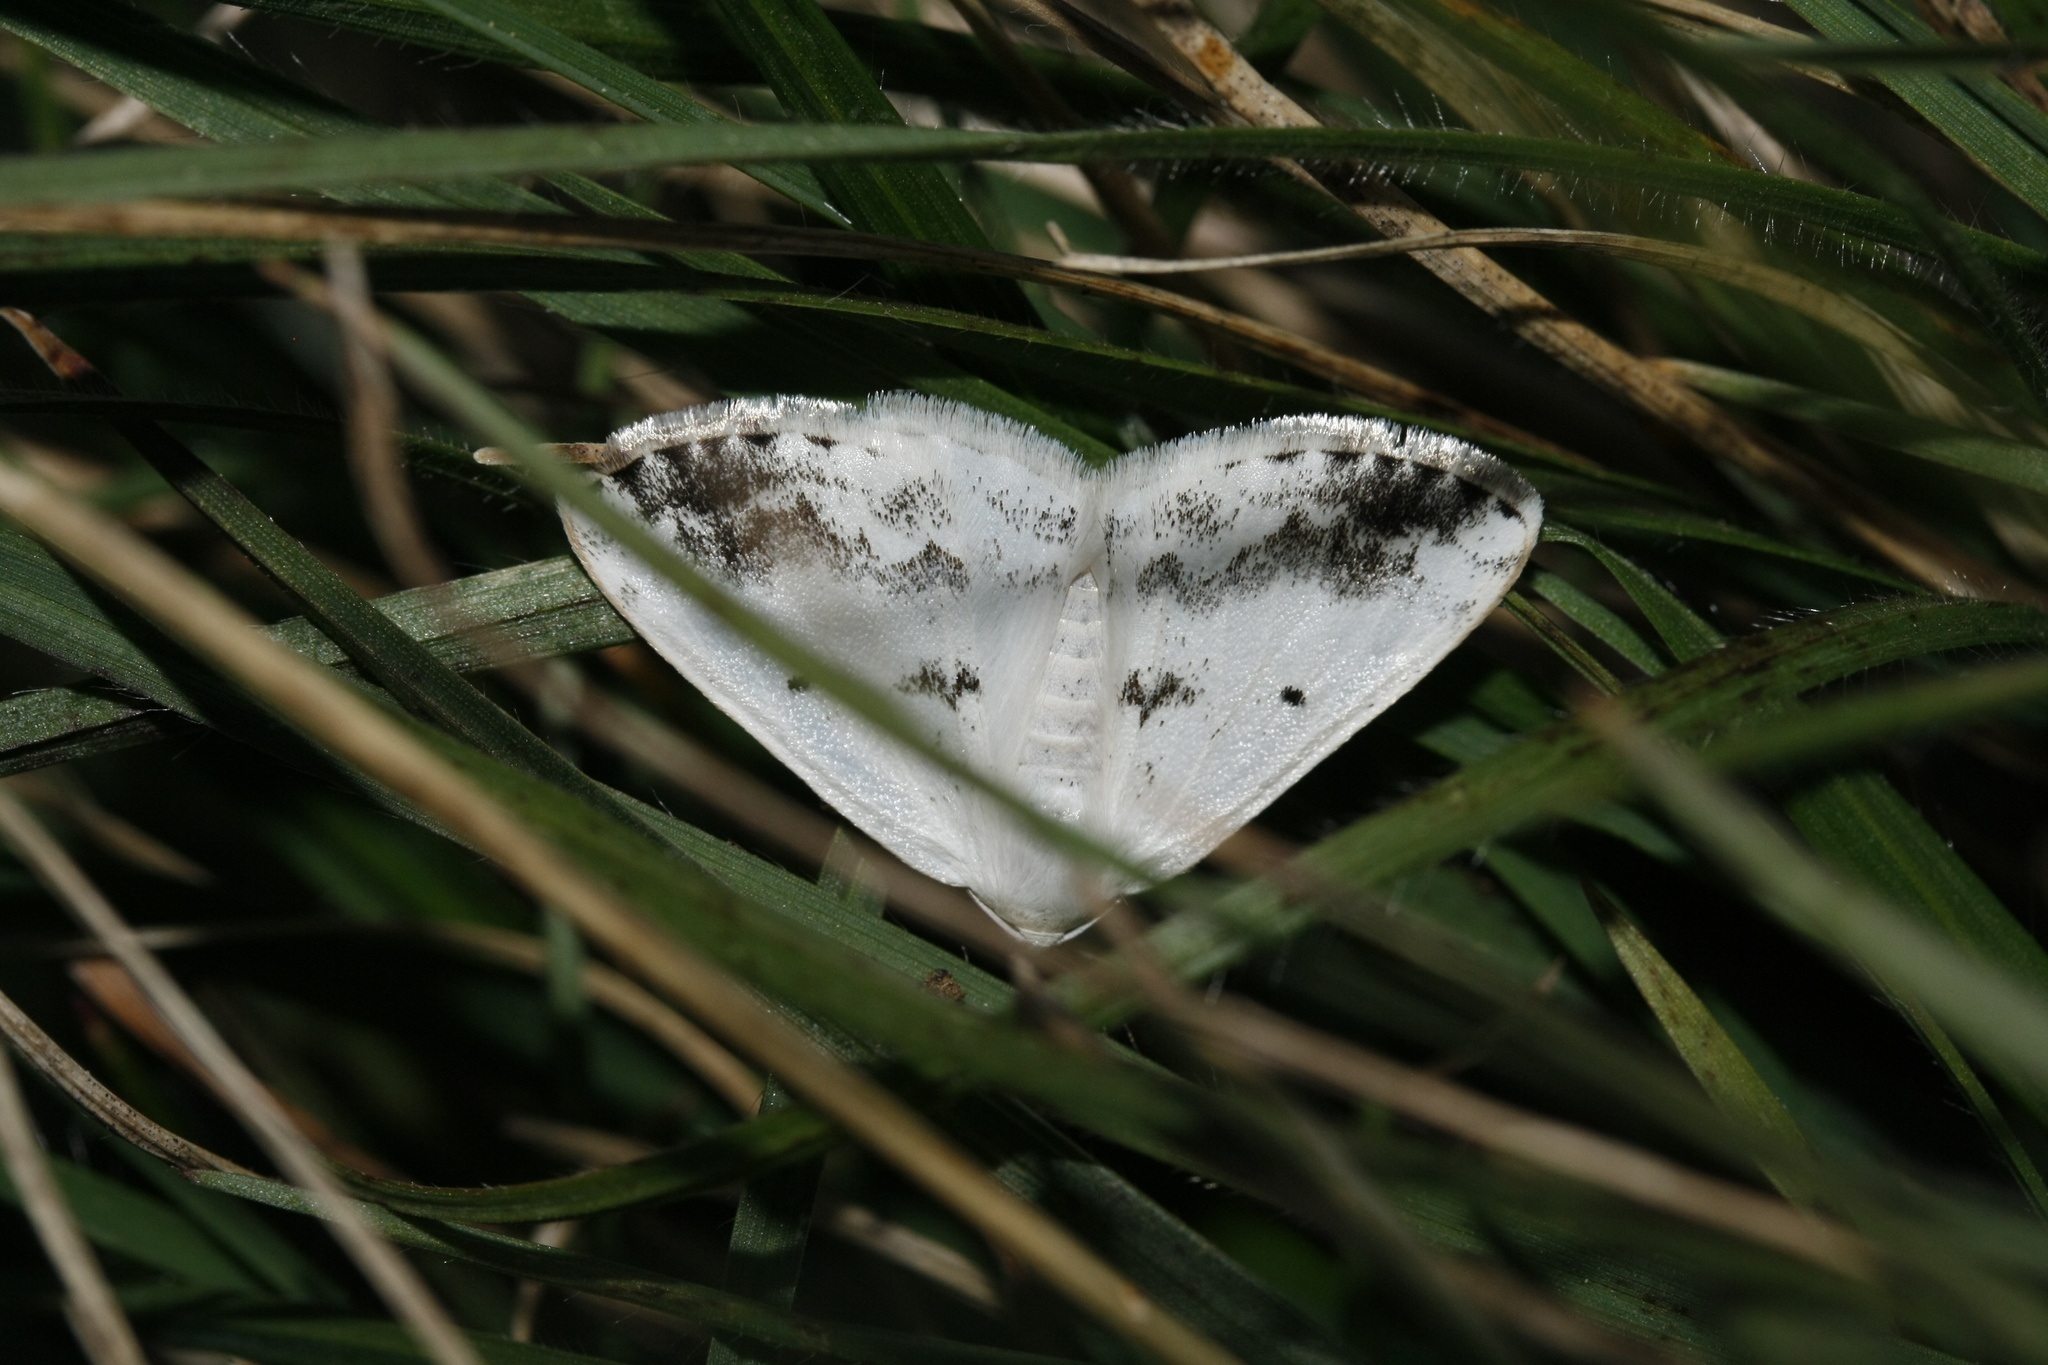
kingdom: Animalia
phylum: Arthropoda
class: Insecta
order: Lepidoptera
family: Geometridae
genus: Lomographa
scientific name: Lomographa temerata
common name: Clouded silver
